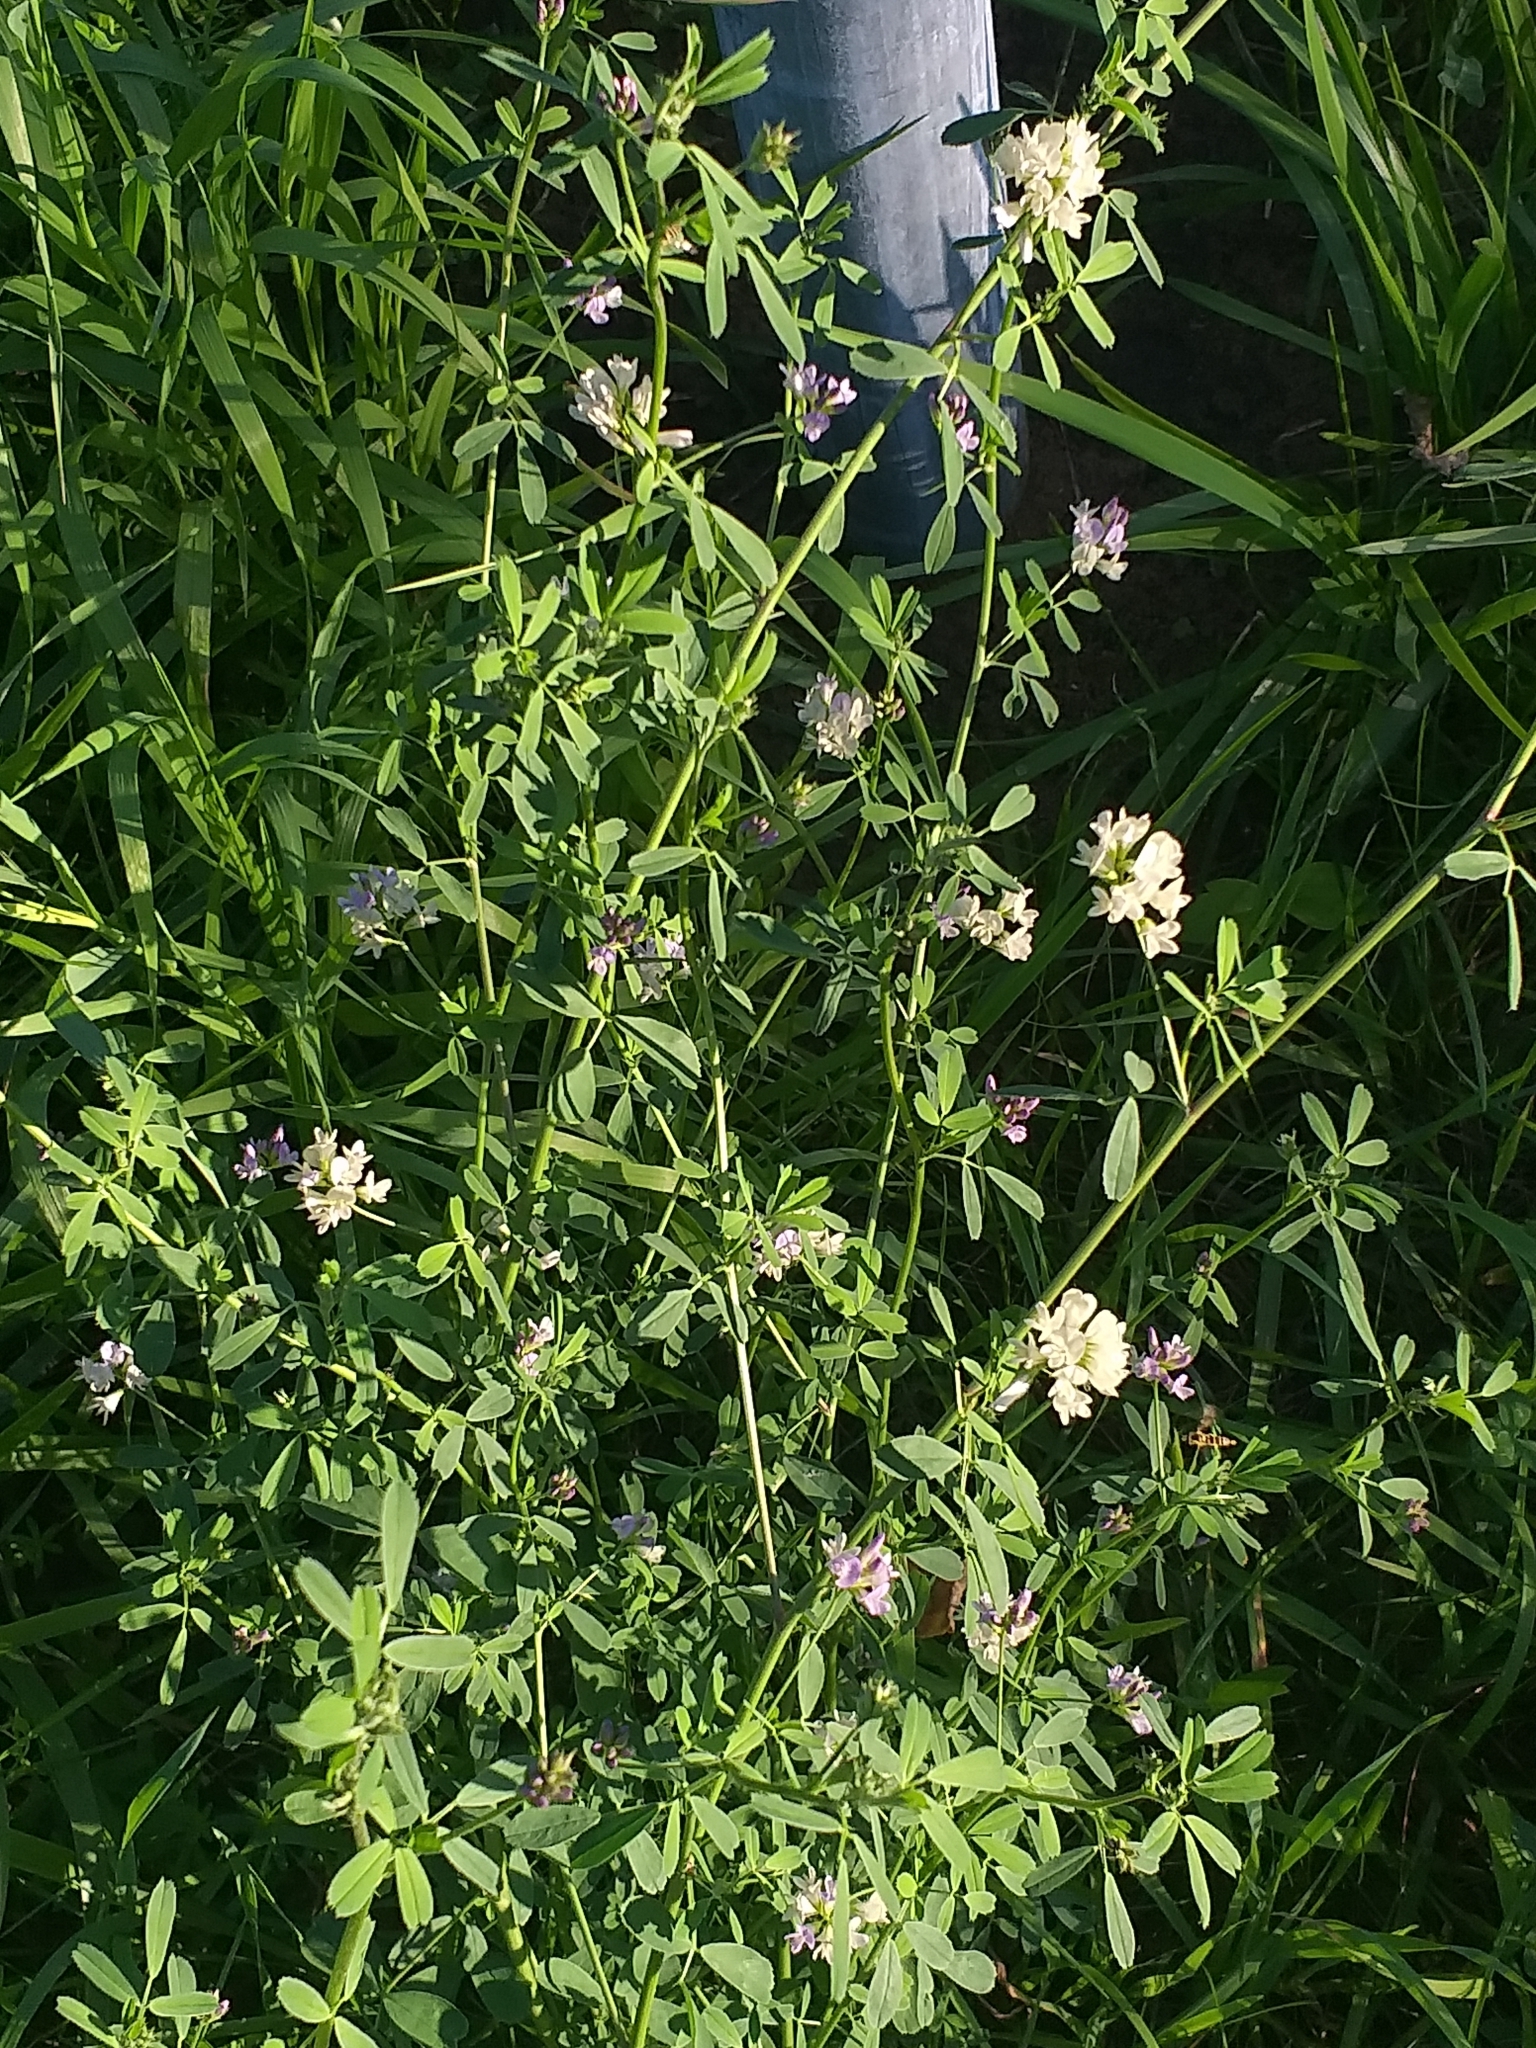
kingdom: Plantae
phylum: Tracheophyta
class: Magnoliopsida
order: Fabales
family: Fabaceae
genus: Medicago
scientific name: Medicago varia
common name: Sand lucerne
